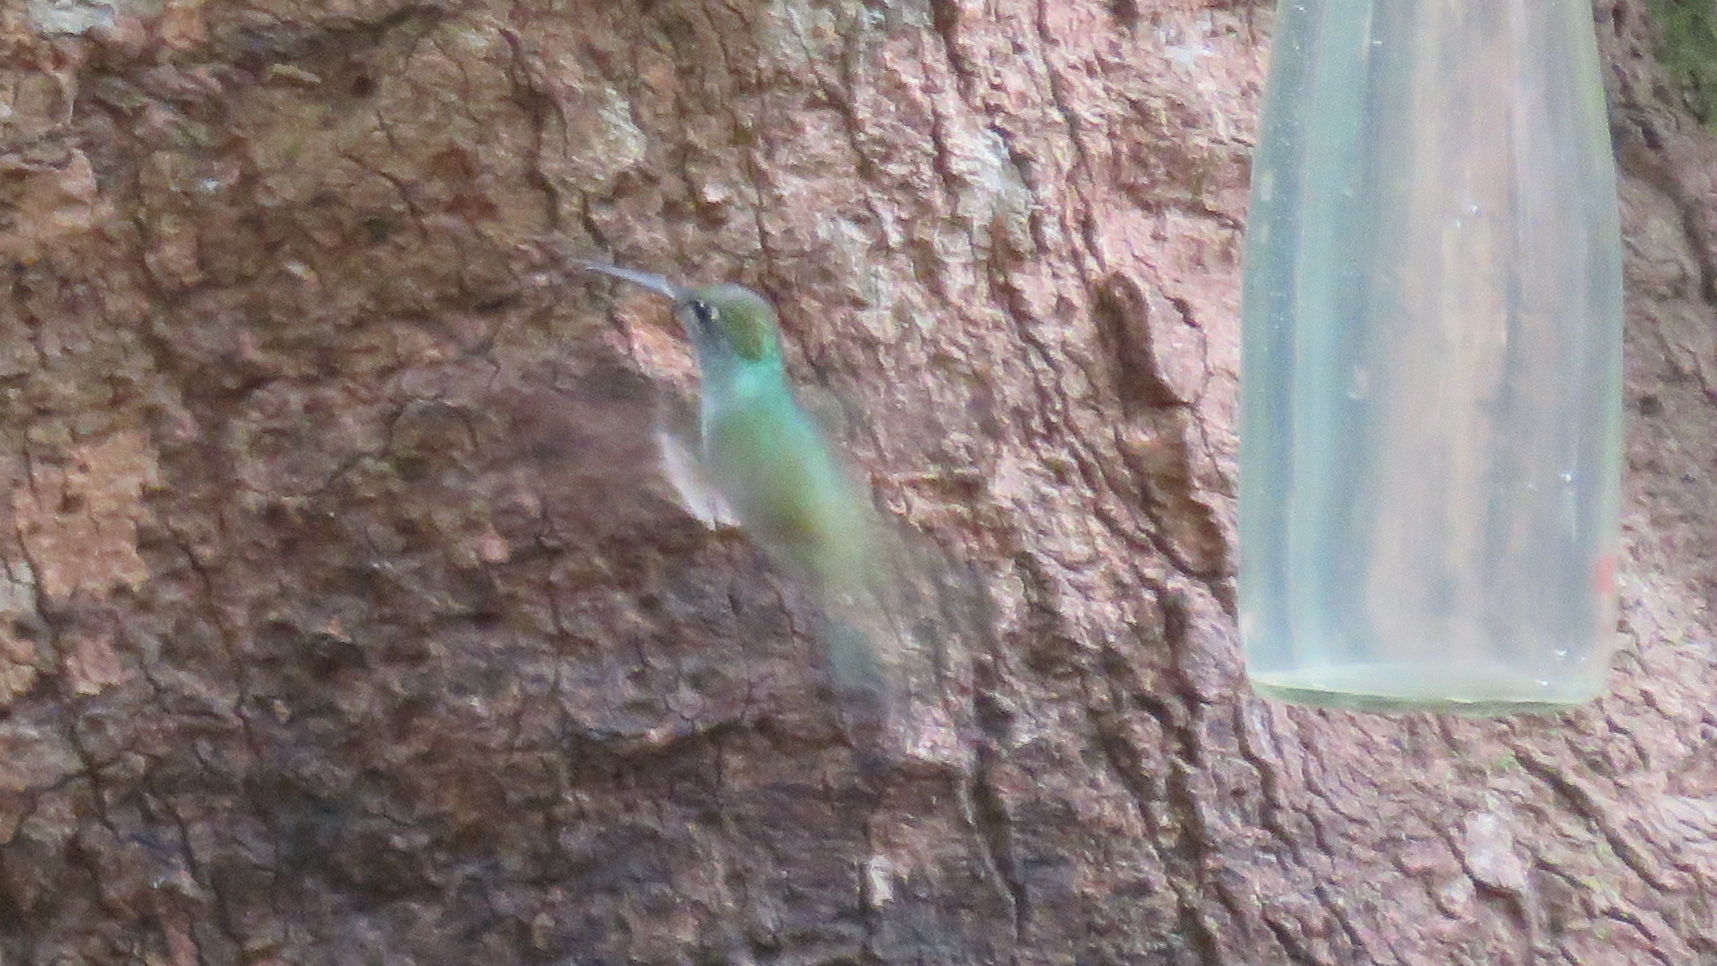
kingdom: Animalia
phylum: Chordata
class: Aves
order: Apodiformes
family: Trochilidae
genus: Chrysuronia
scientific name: Chrysuronia versicolor
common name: Versicolored emerald
